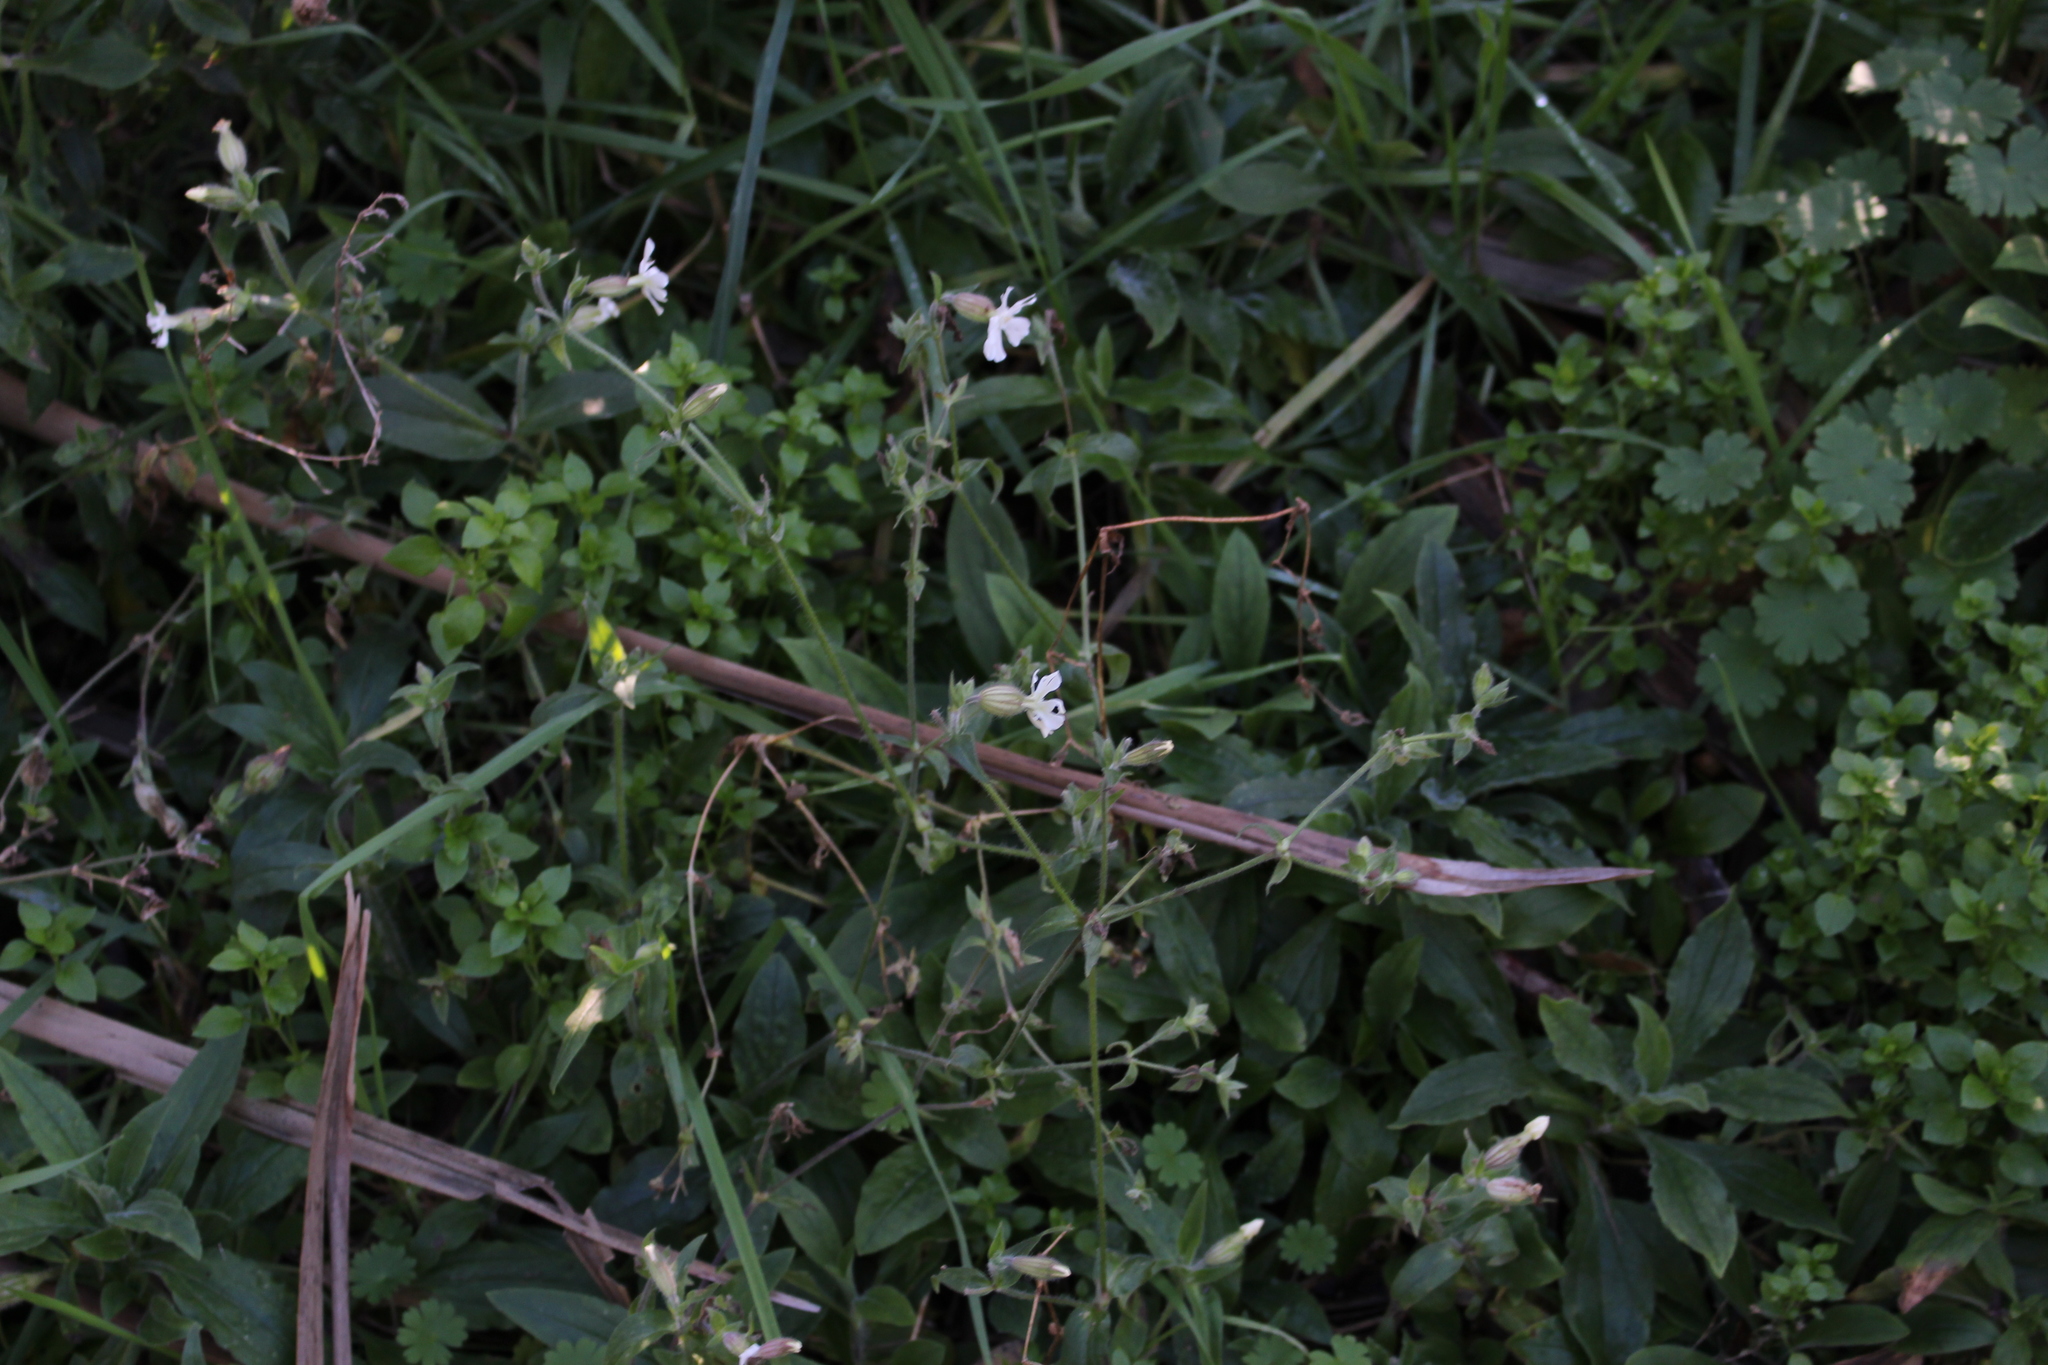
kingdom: Plantae
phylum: Tracheophyta
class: Magnoliopsida
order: Caryophyllales
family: Caryophyllaceae
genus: Silene
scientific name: Silene gallica
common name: Small-flowered catchfly
